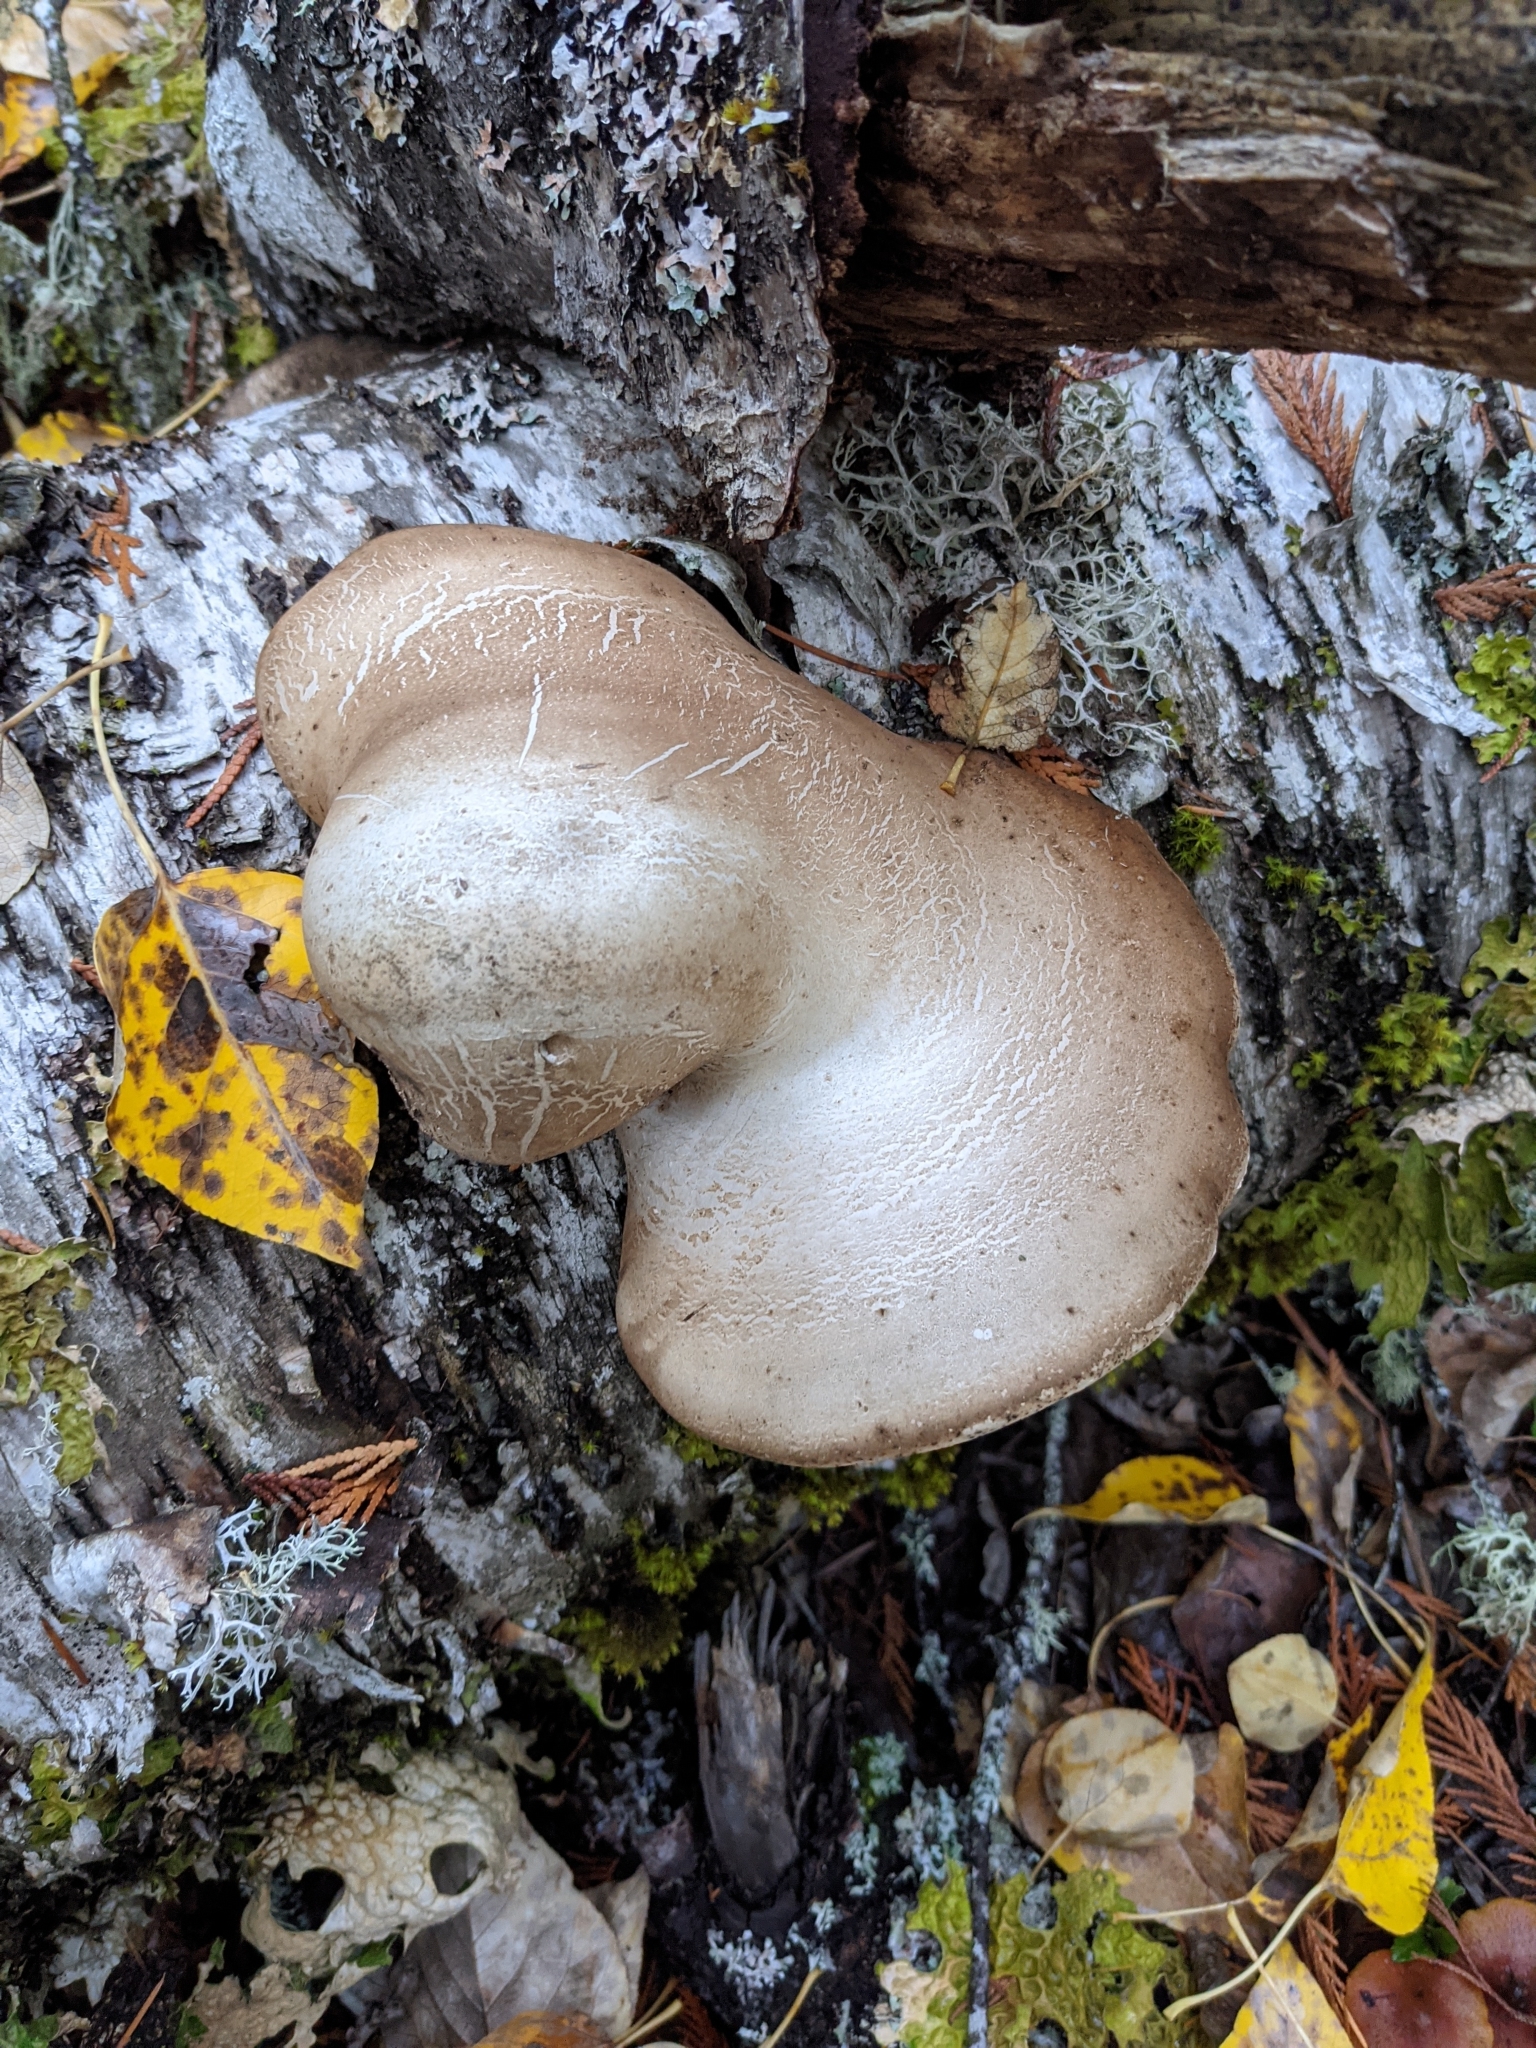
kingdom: Fungi
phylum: Basidiomycota
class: Agaricomycetes
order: Polyporales
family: Fomitopsidaceae
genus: Fomitopsis
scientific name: Fomitopsis betulina
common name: Birch polypore
